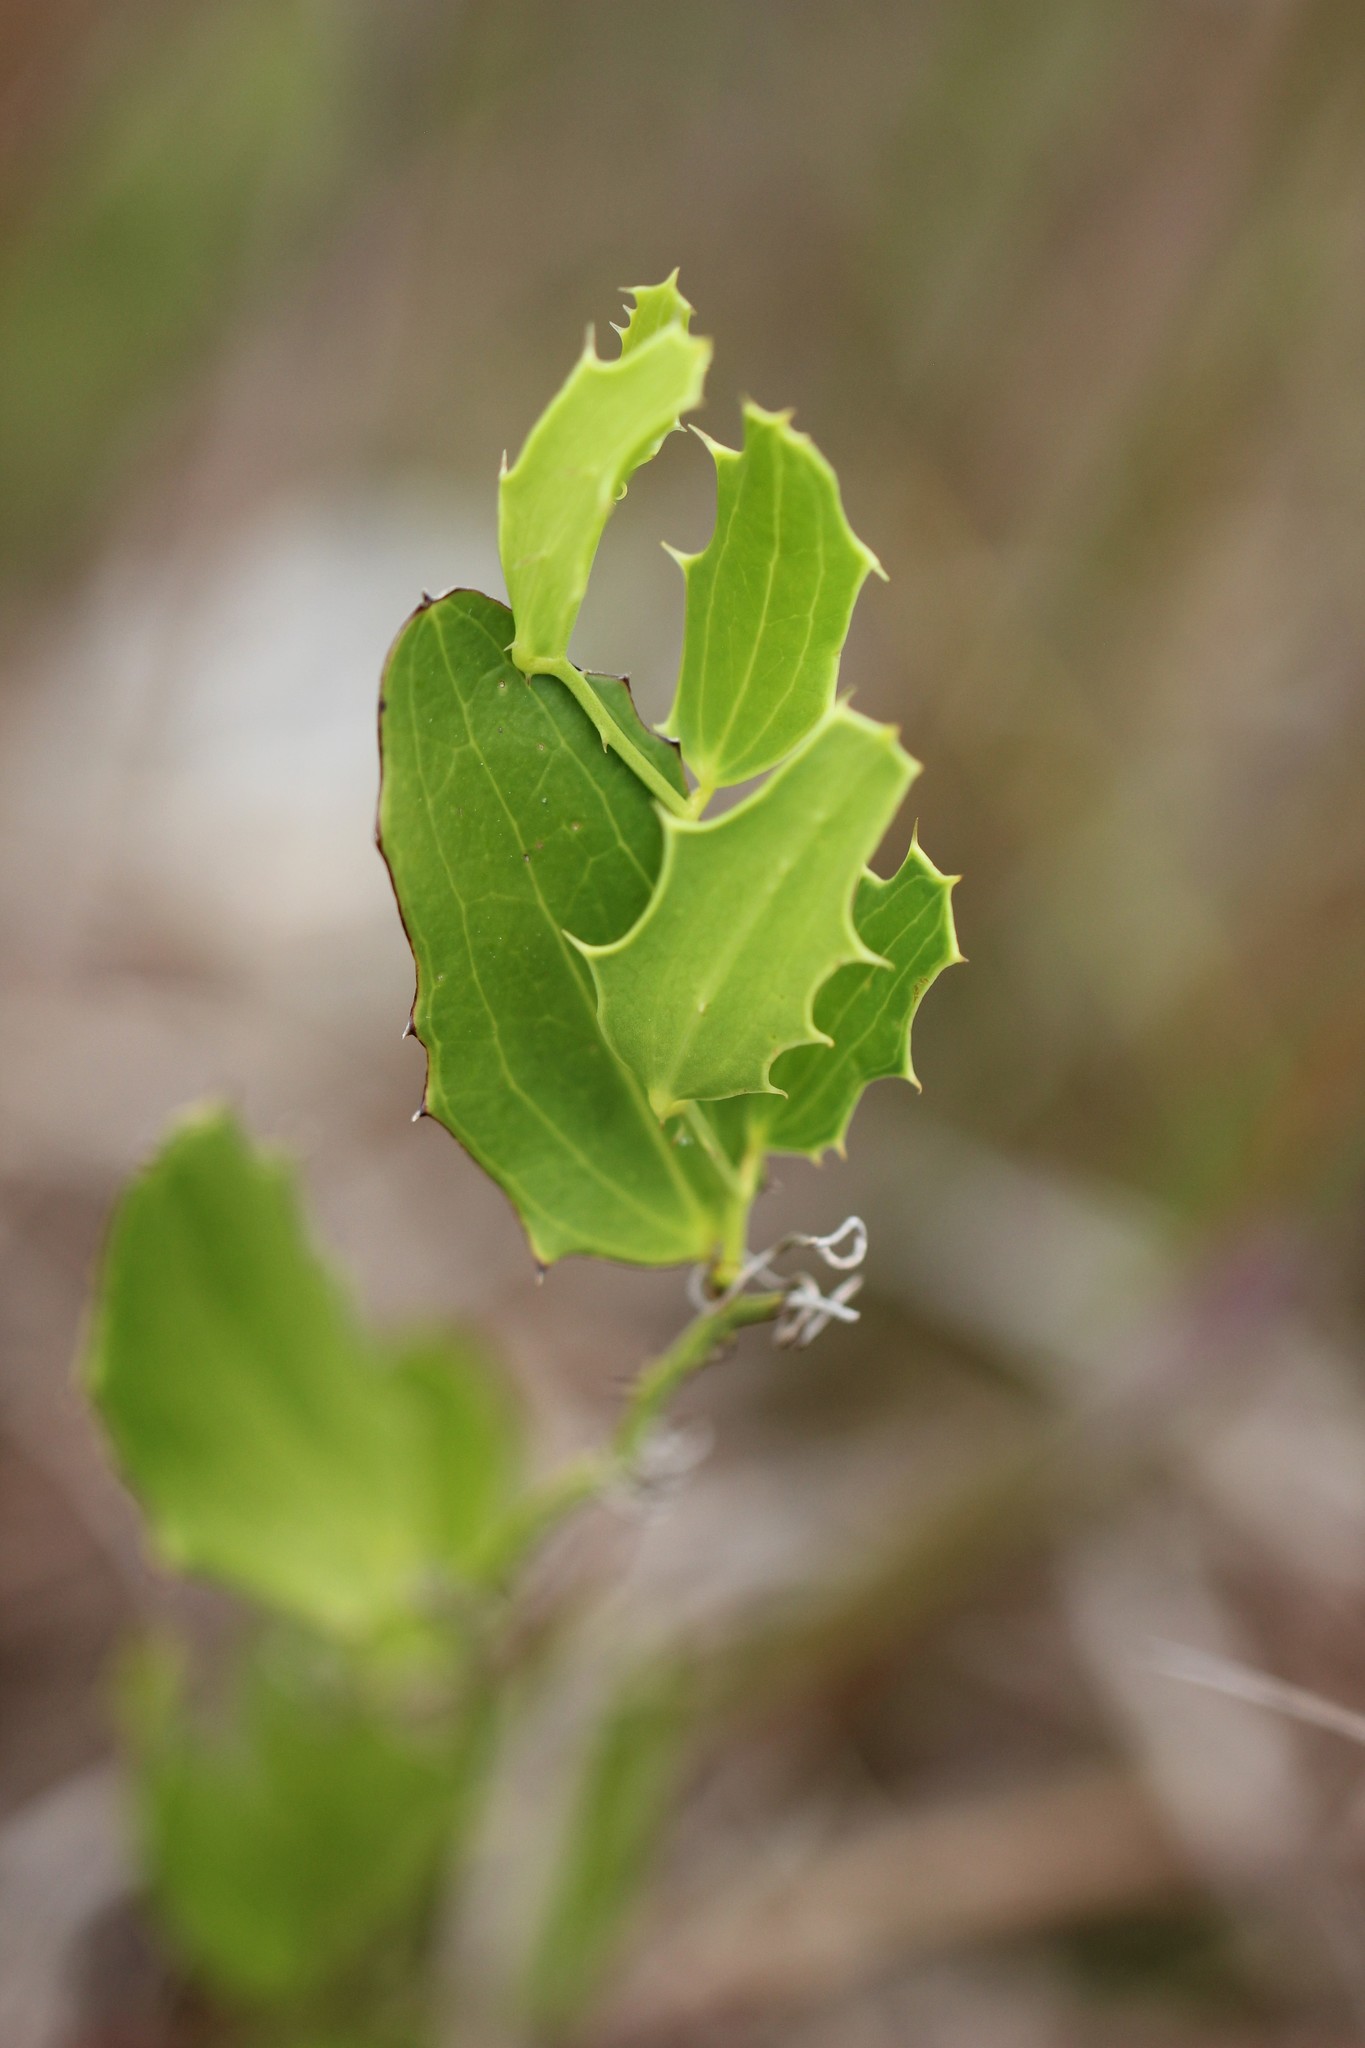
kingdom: Plantae
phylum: Tracheophyta
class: Liliopsida
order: Liliales
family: Smilacaceae
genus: Smilax
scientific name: Smilax havanensis
